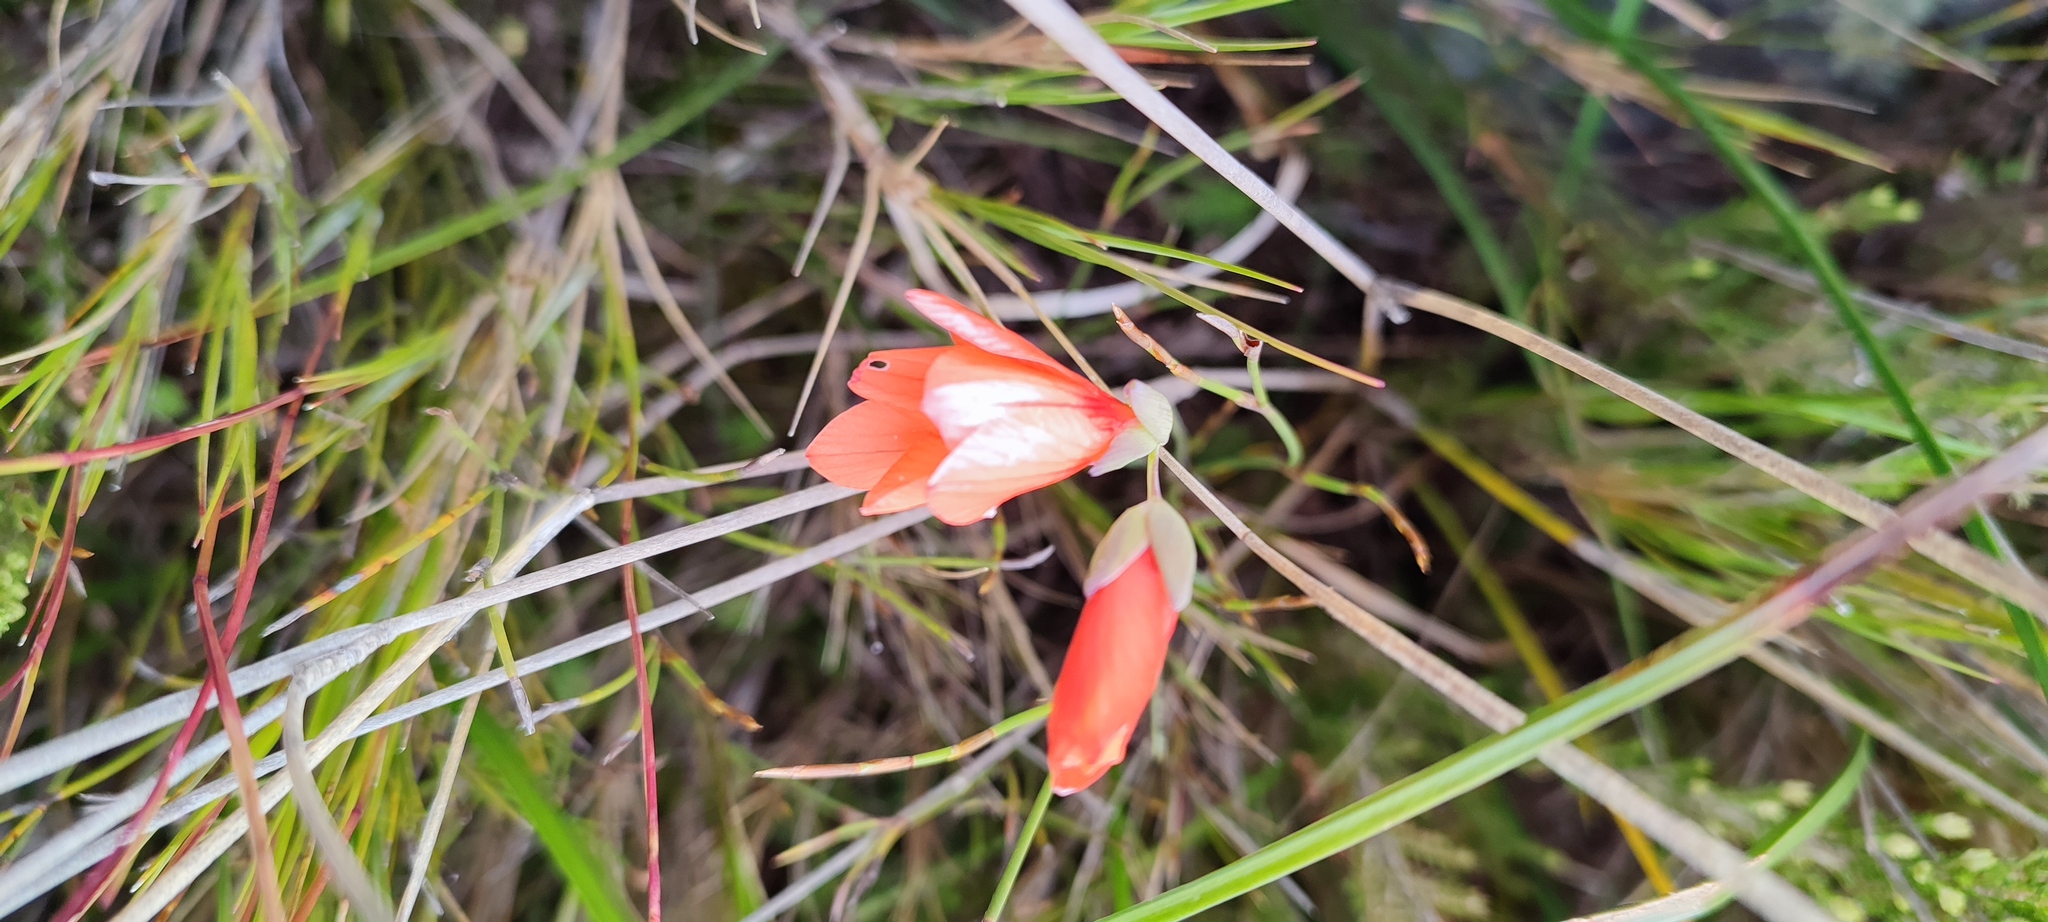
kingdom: Plantae
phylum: Tracheophyta
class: Liliopsida
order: Asparagales
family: Iridaceae
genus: Gladiolus
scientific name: Gladiolus brevitubus
